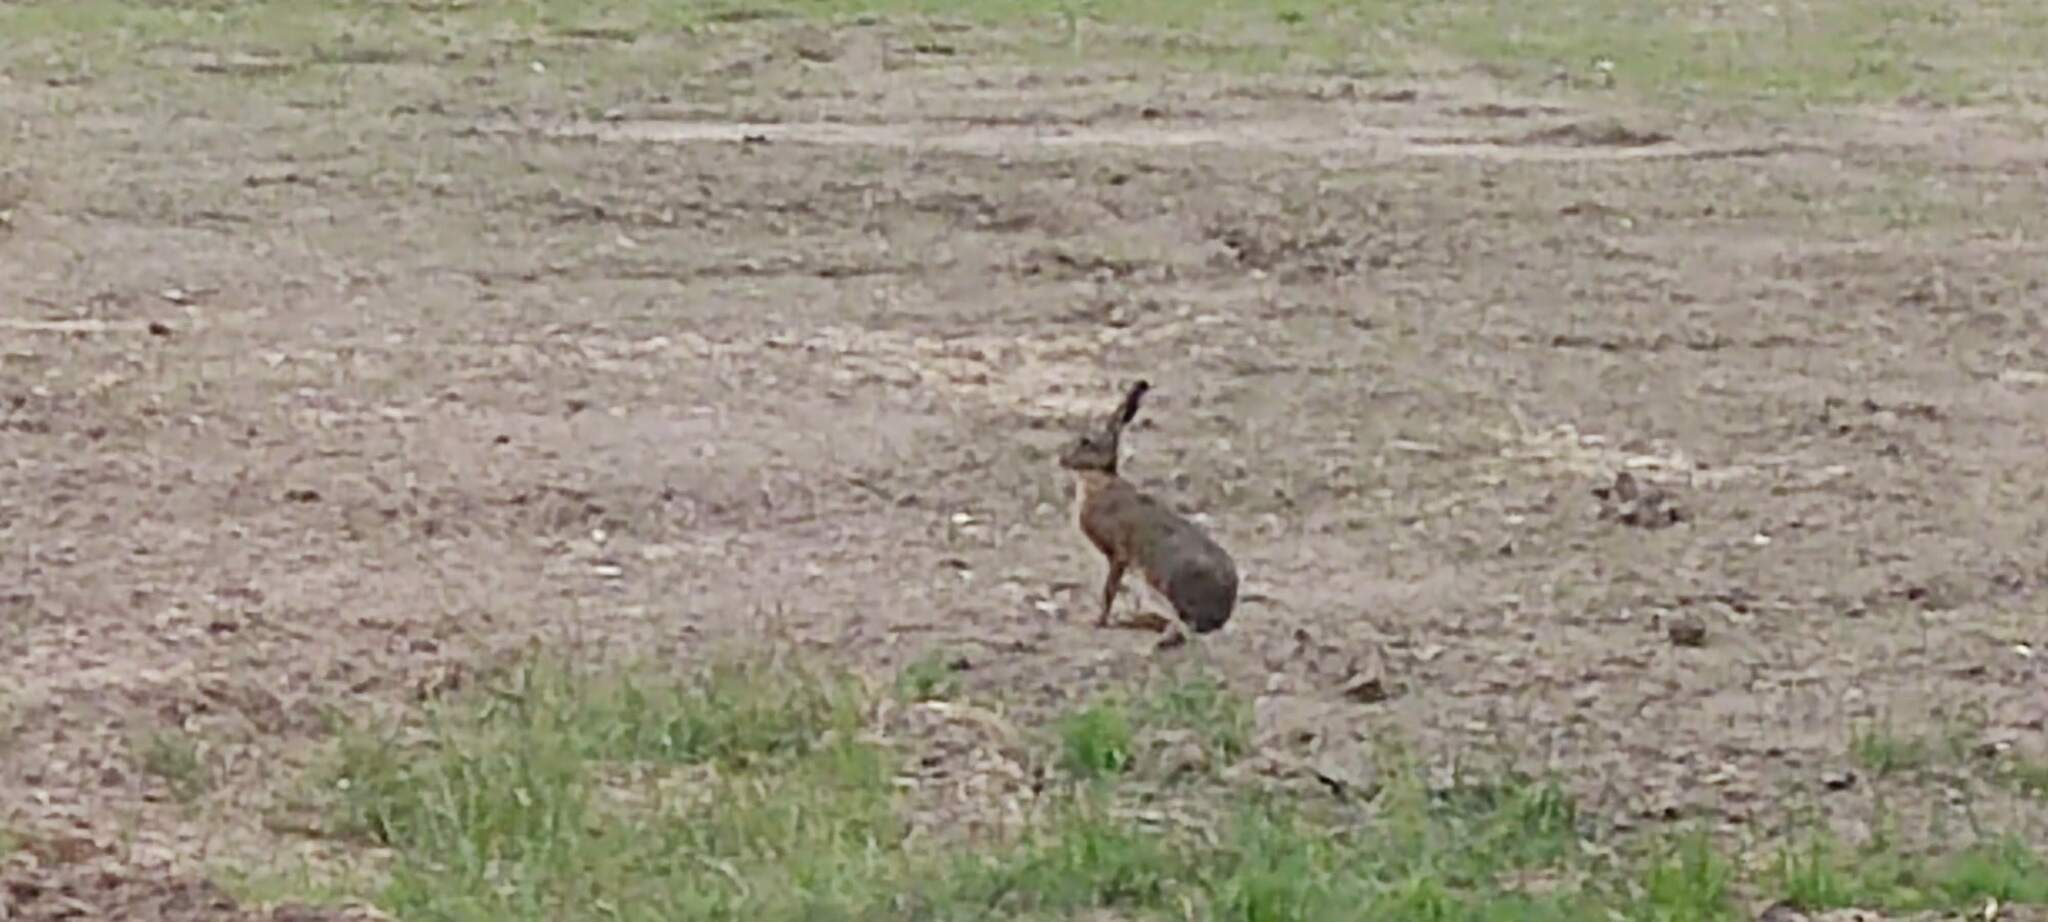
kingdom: Animalia
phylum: Chordata
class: Mammalia
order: Lagomorpha
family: Leporidae
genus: Lepus
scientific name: Lepus europaeus
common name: European hare
